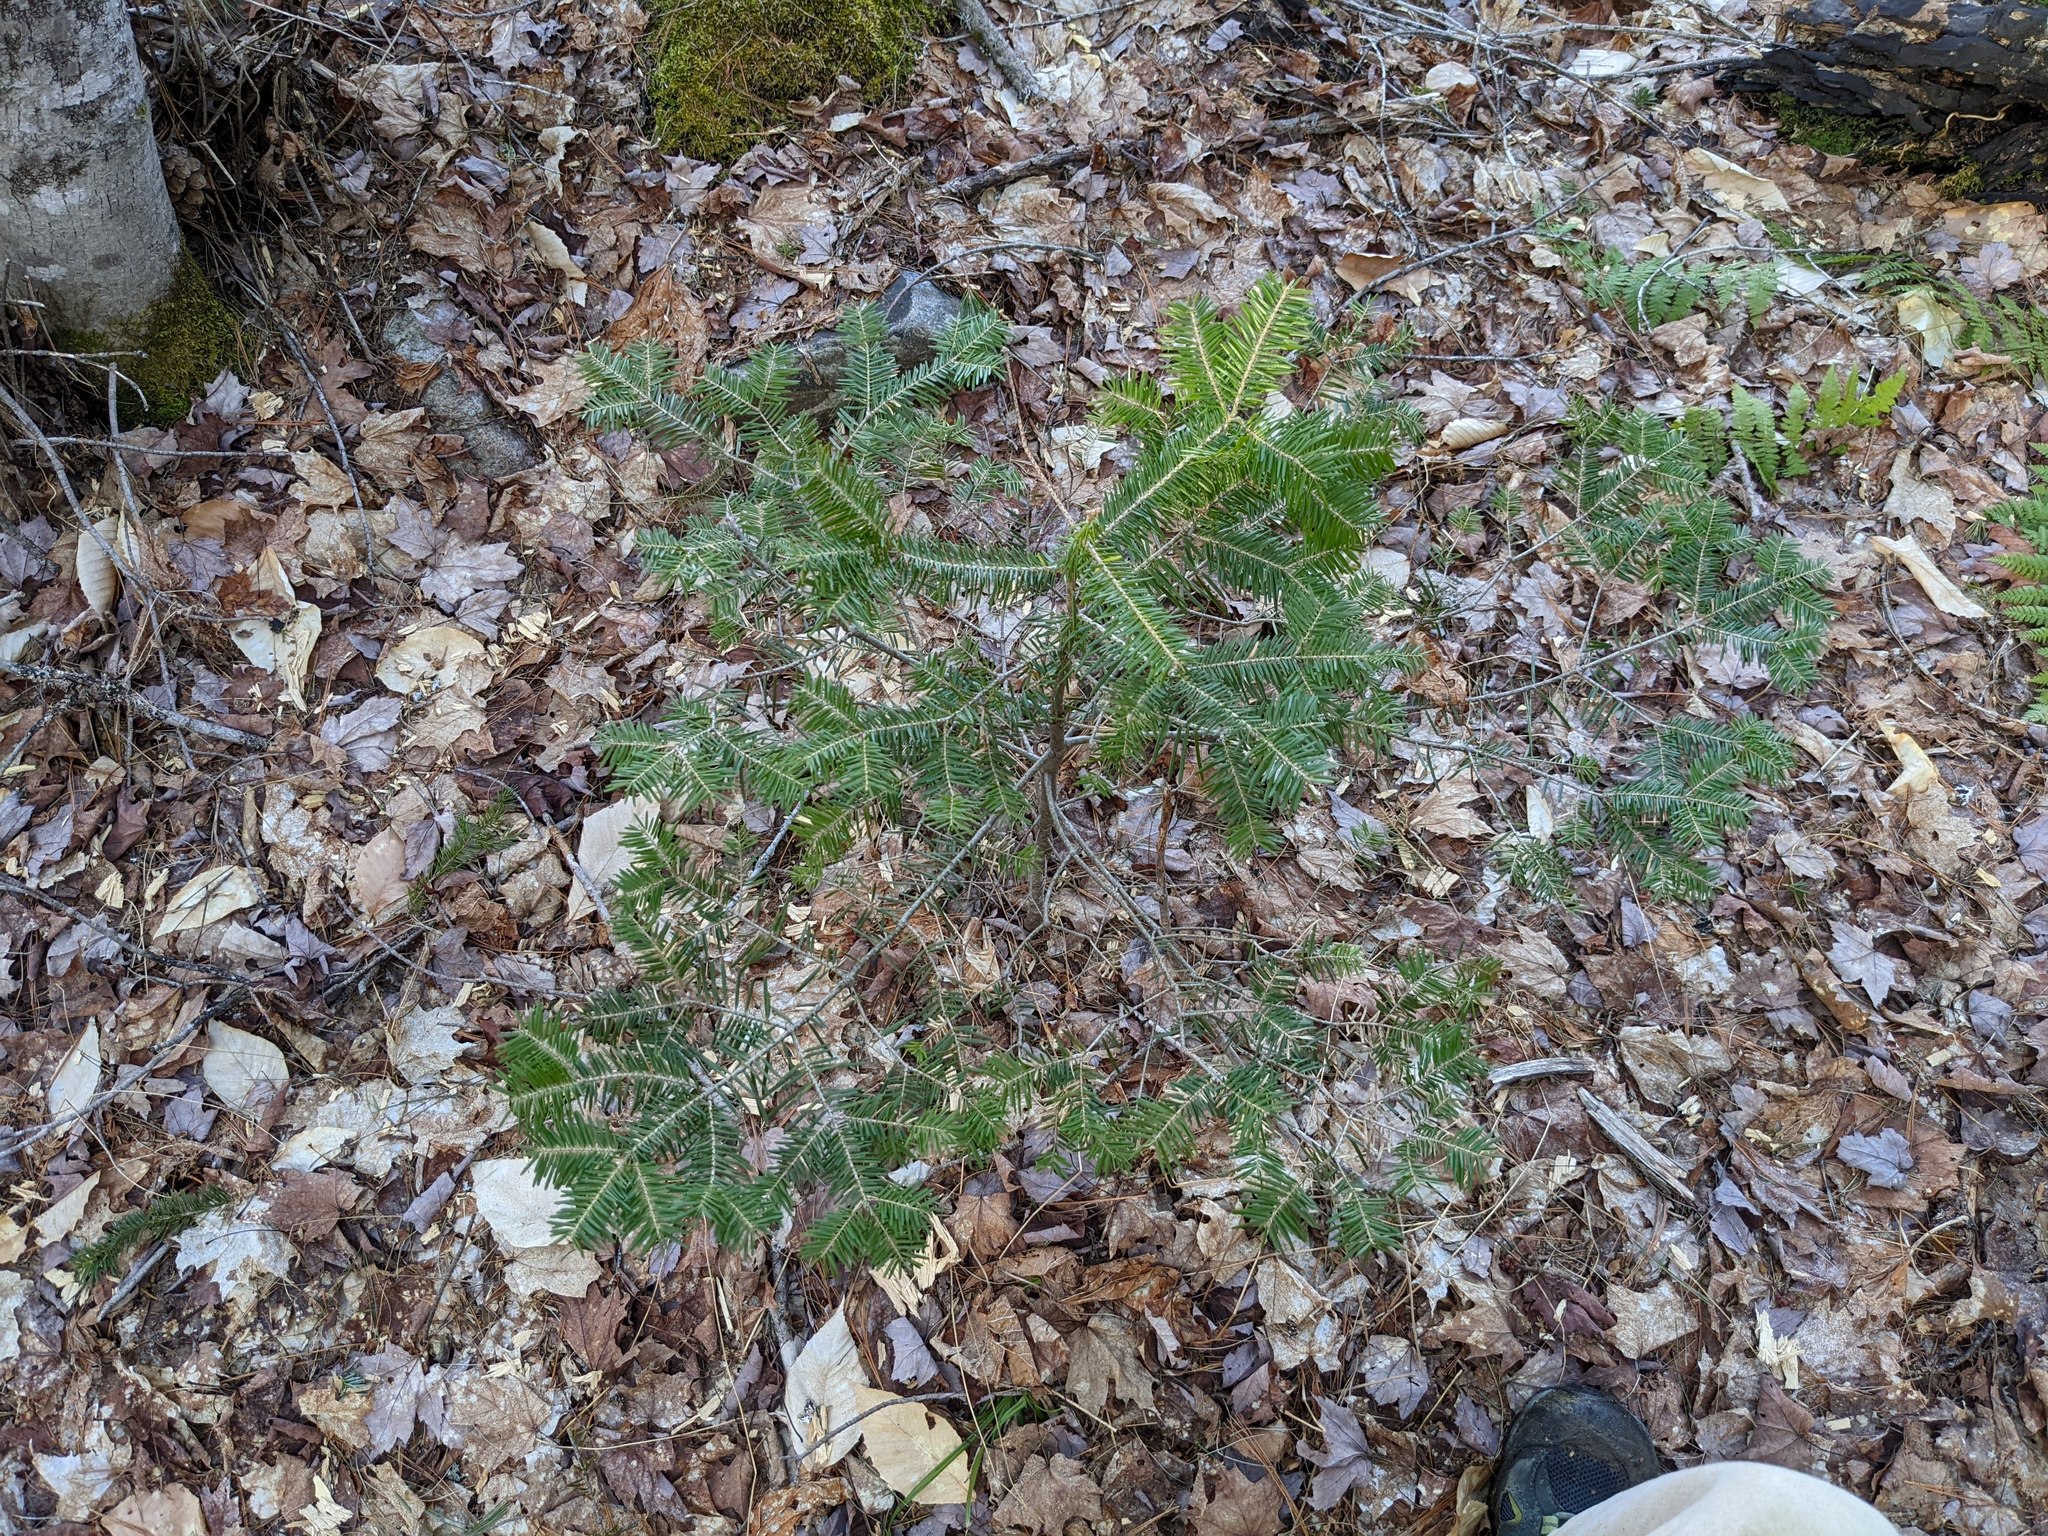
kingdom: Plantae
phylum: Tracheophyta
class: Pinopsida
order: Pinales
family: Pinaceae
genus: Abies
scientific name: Abies balsamea
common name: Balsam fir
